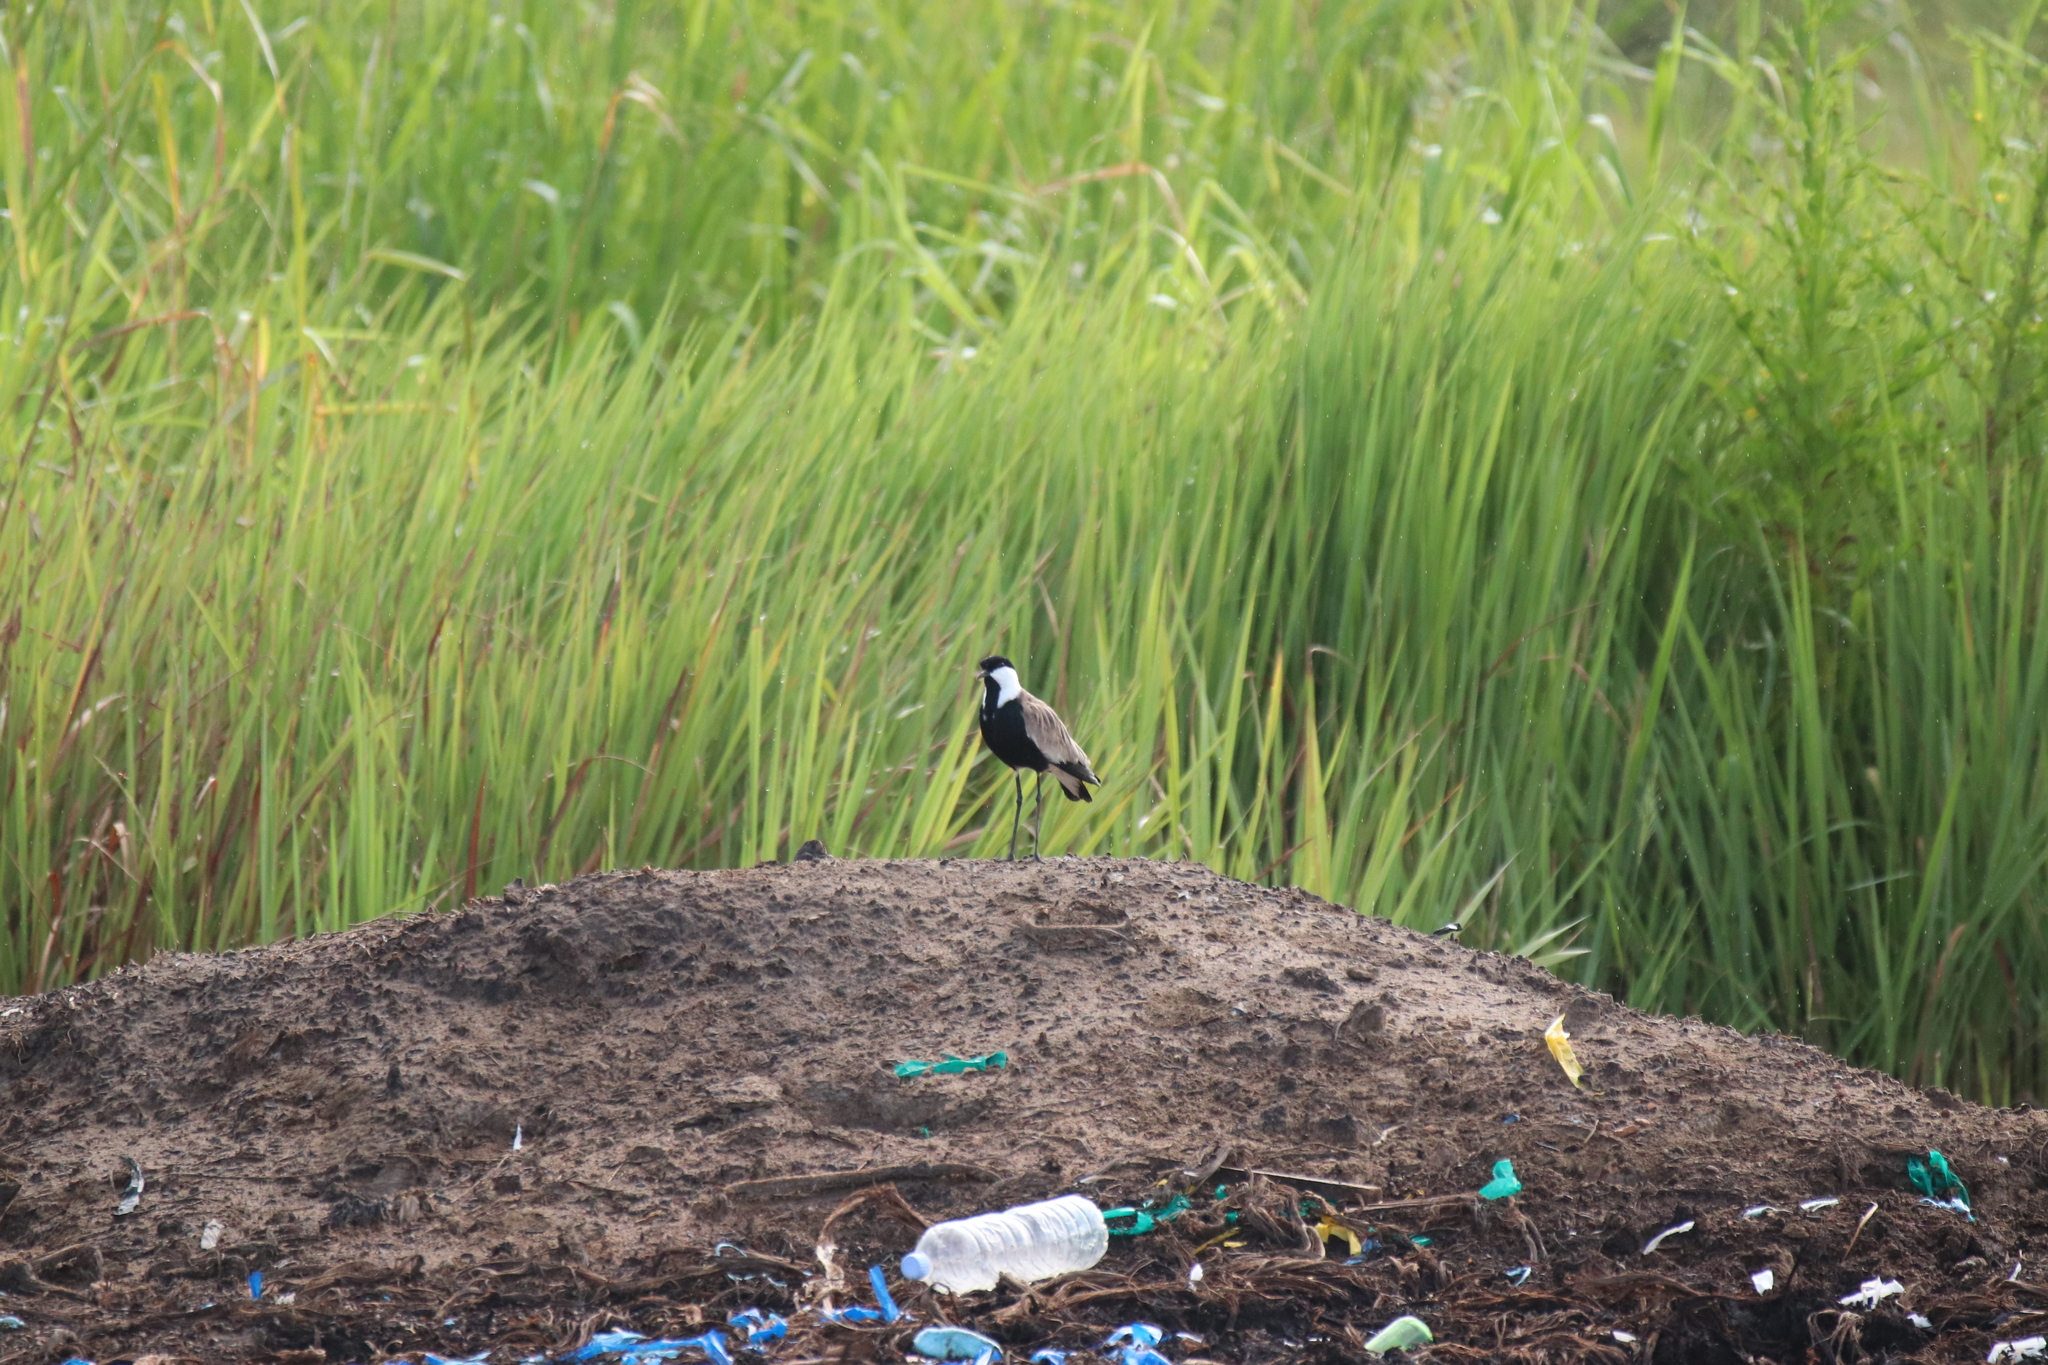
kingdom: Animalia
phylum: Chordata
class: Aves
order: Charadriiformes
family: Charadriidae
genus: Vanellus
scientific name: Vanellus spinosus
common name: Spur-winged lapwing
